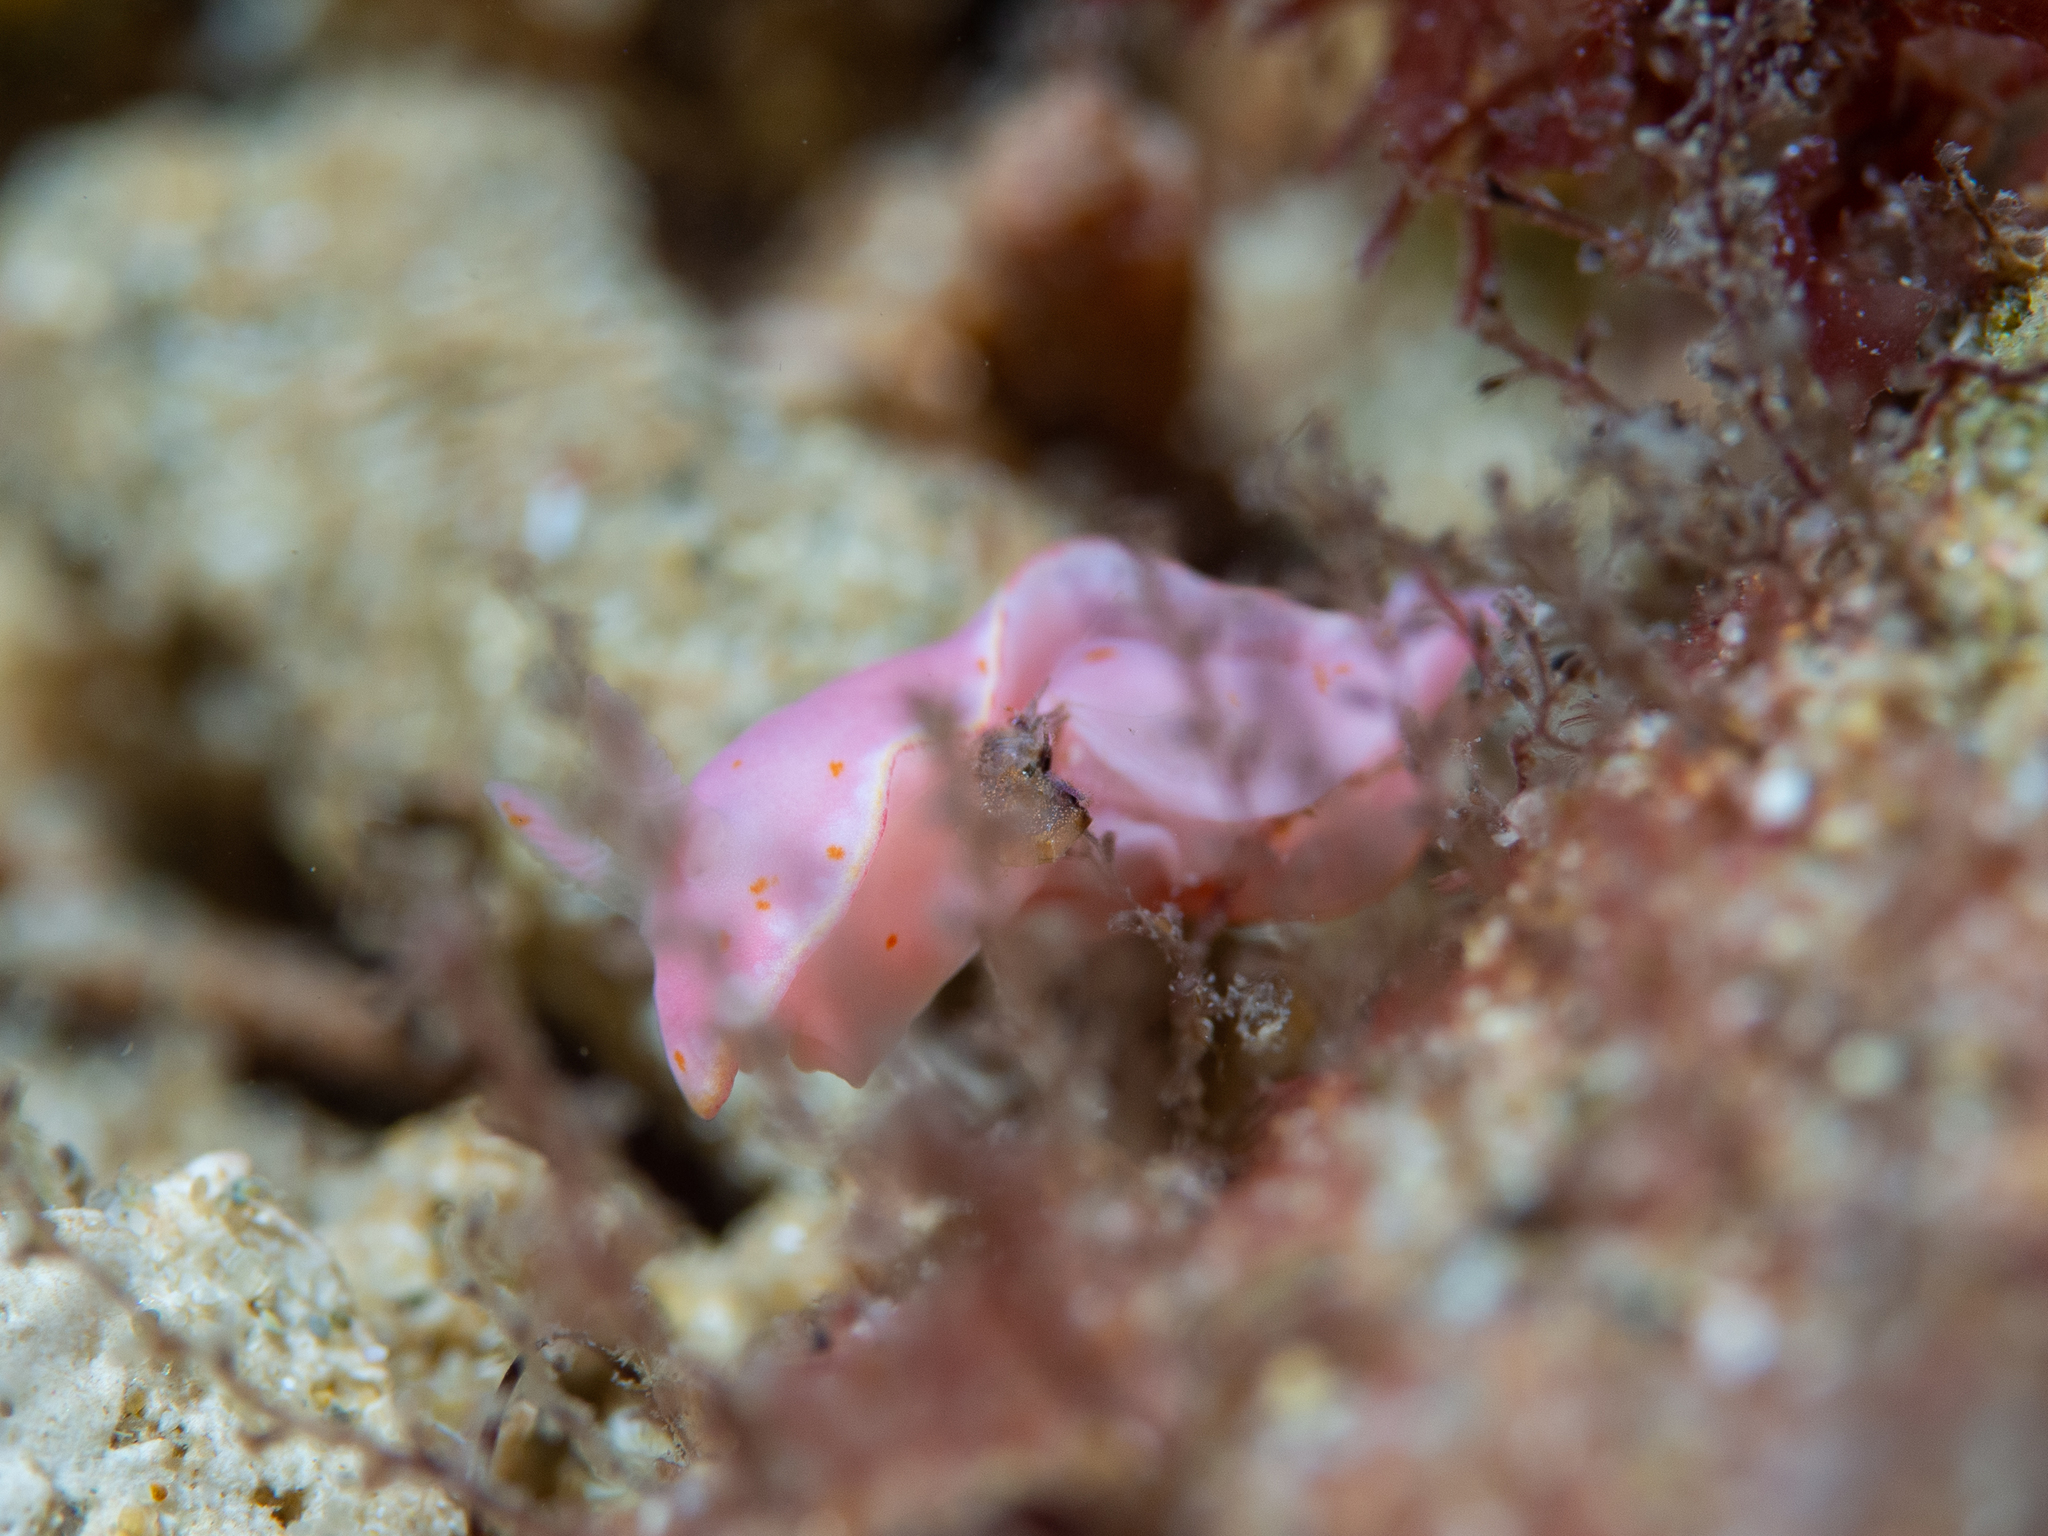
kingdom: Animalia
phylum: Mollusca
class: Gastropoda
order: Nudibranchia
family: Chromodorididae
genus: Verconia
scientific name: Verconia haliclona
